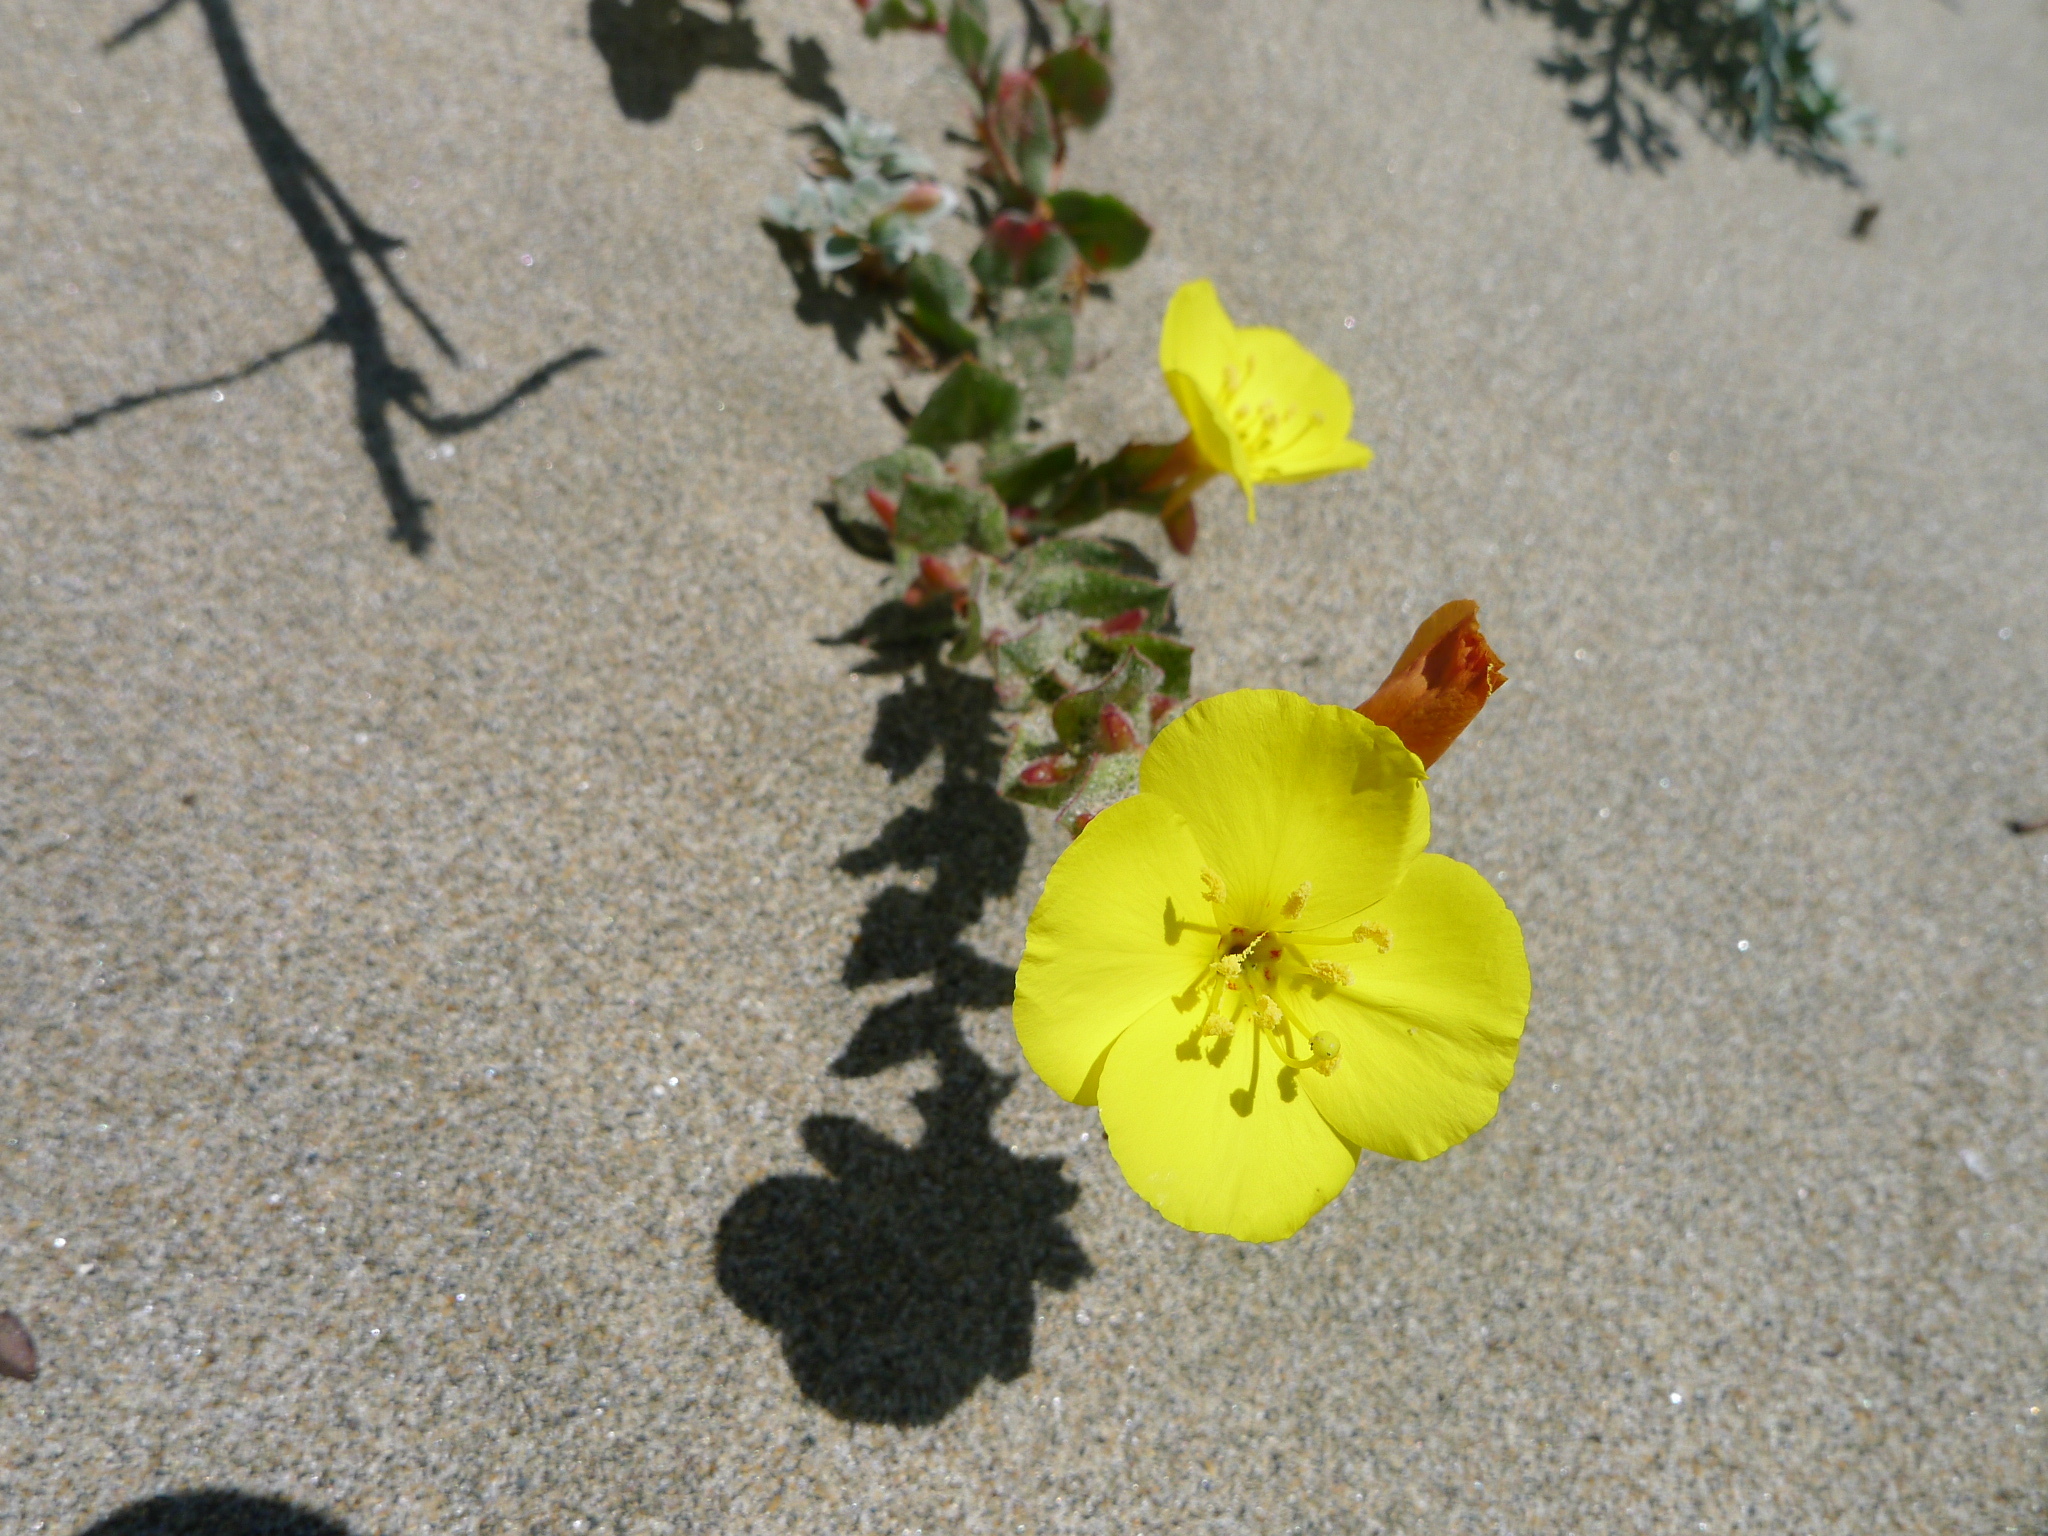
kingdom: Plantae
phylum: Tracheophyta
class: Magnoliopsida
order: Myrtales
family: Onagraceae
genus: Camissoniopsis
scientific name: Camissoniopsis cheiranthifolia
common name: Beach suncup
